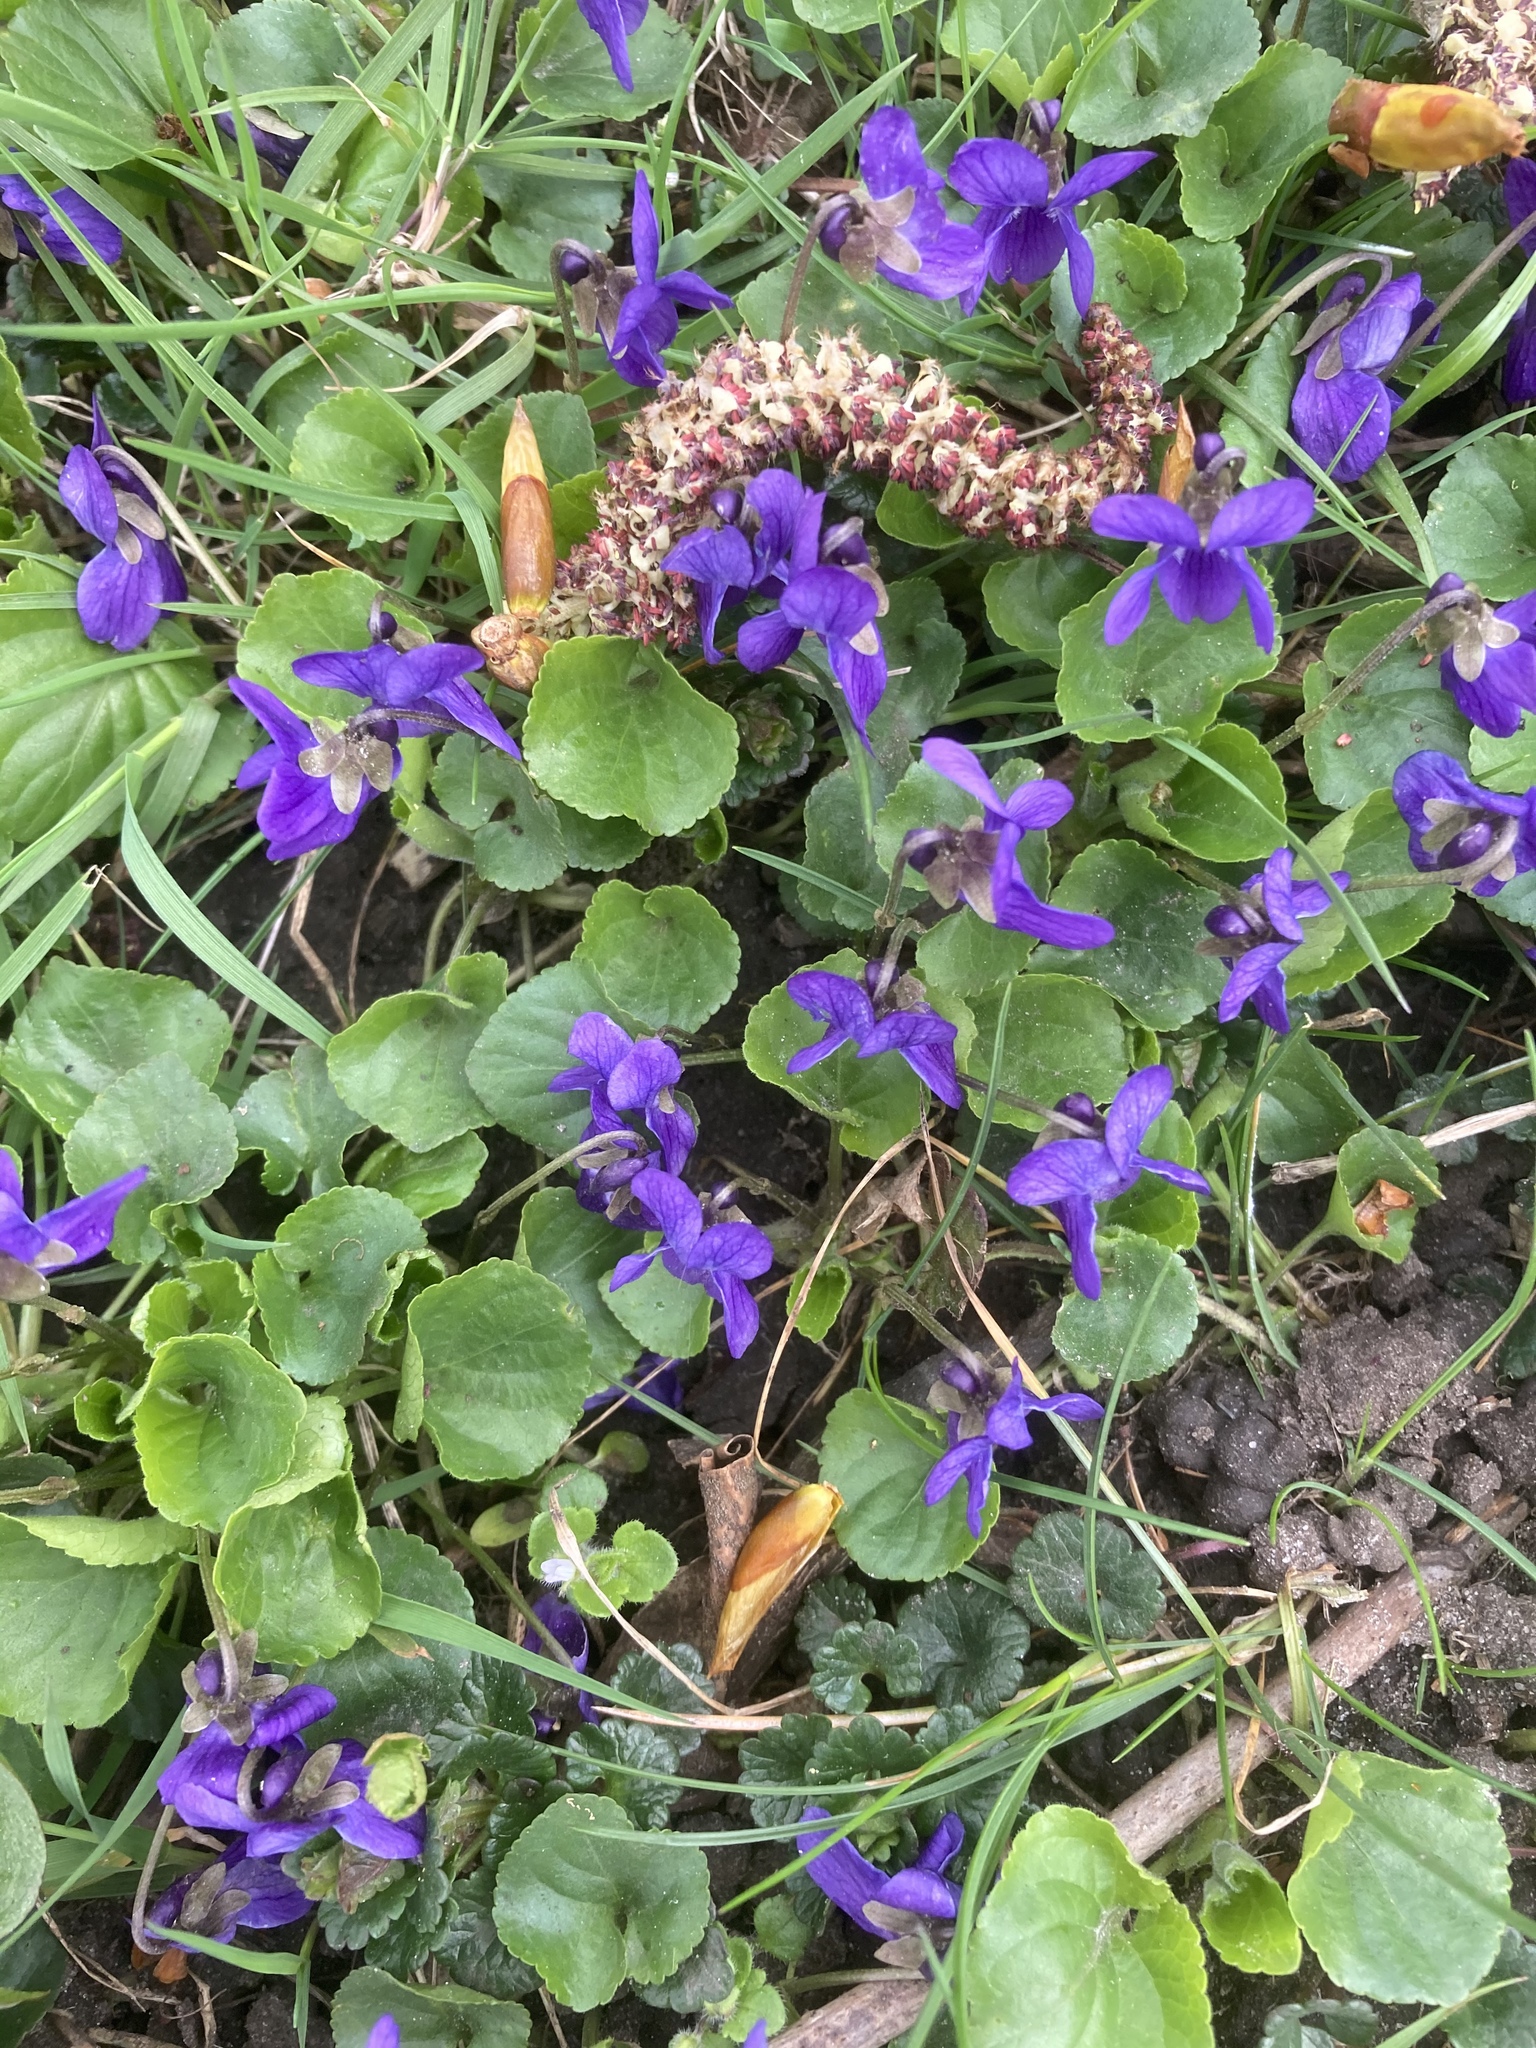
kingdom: Plantae
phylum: Tracheophyta
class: Magnoliopsida
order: Malpighiales
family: Violaceae
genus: Viola
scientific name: Viola odorata
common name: Sweet violet
